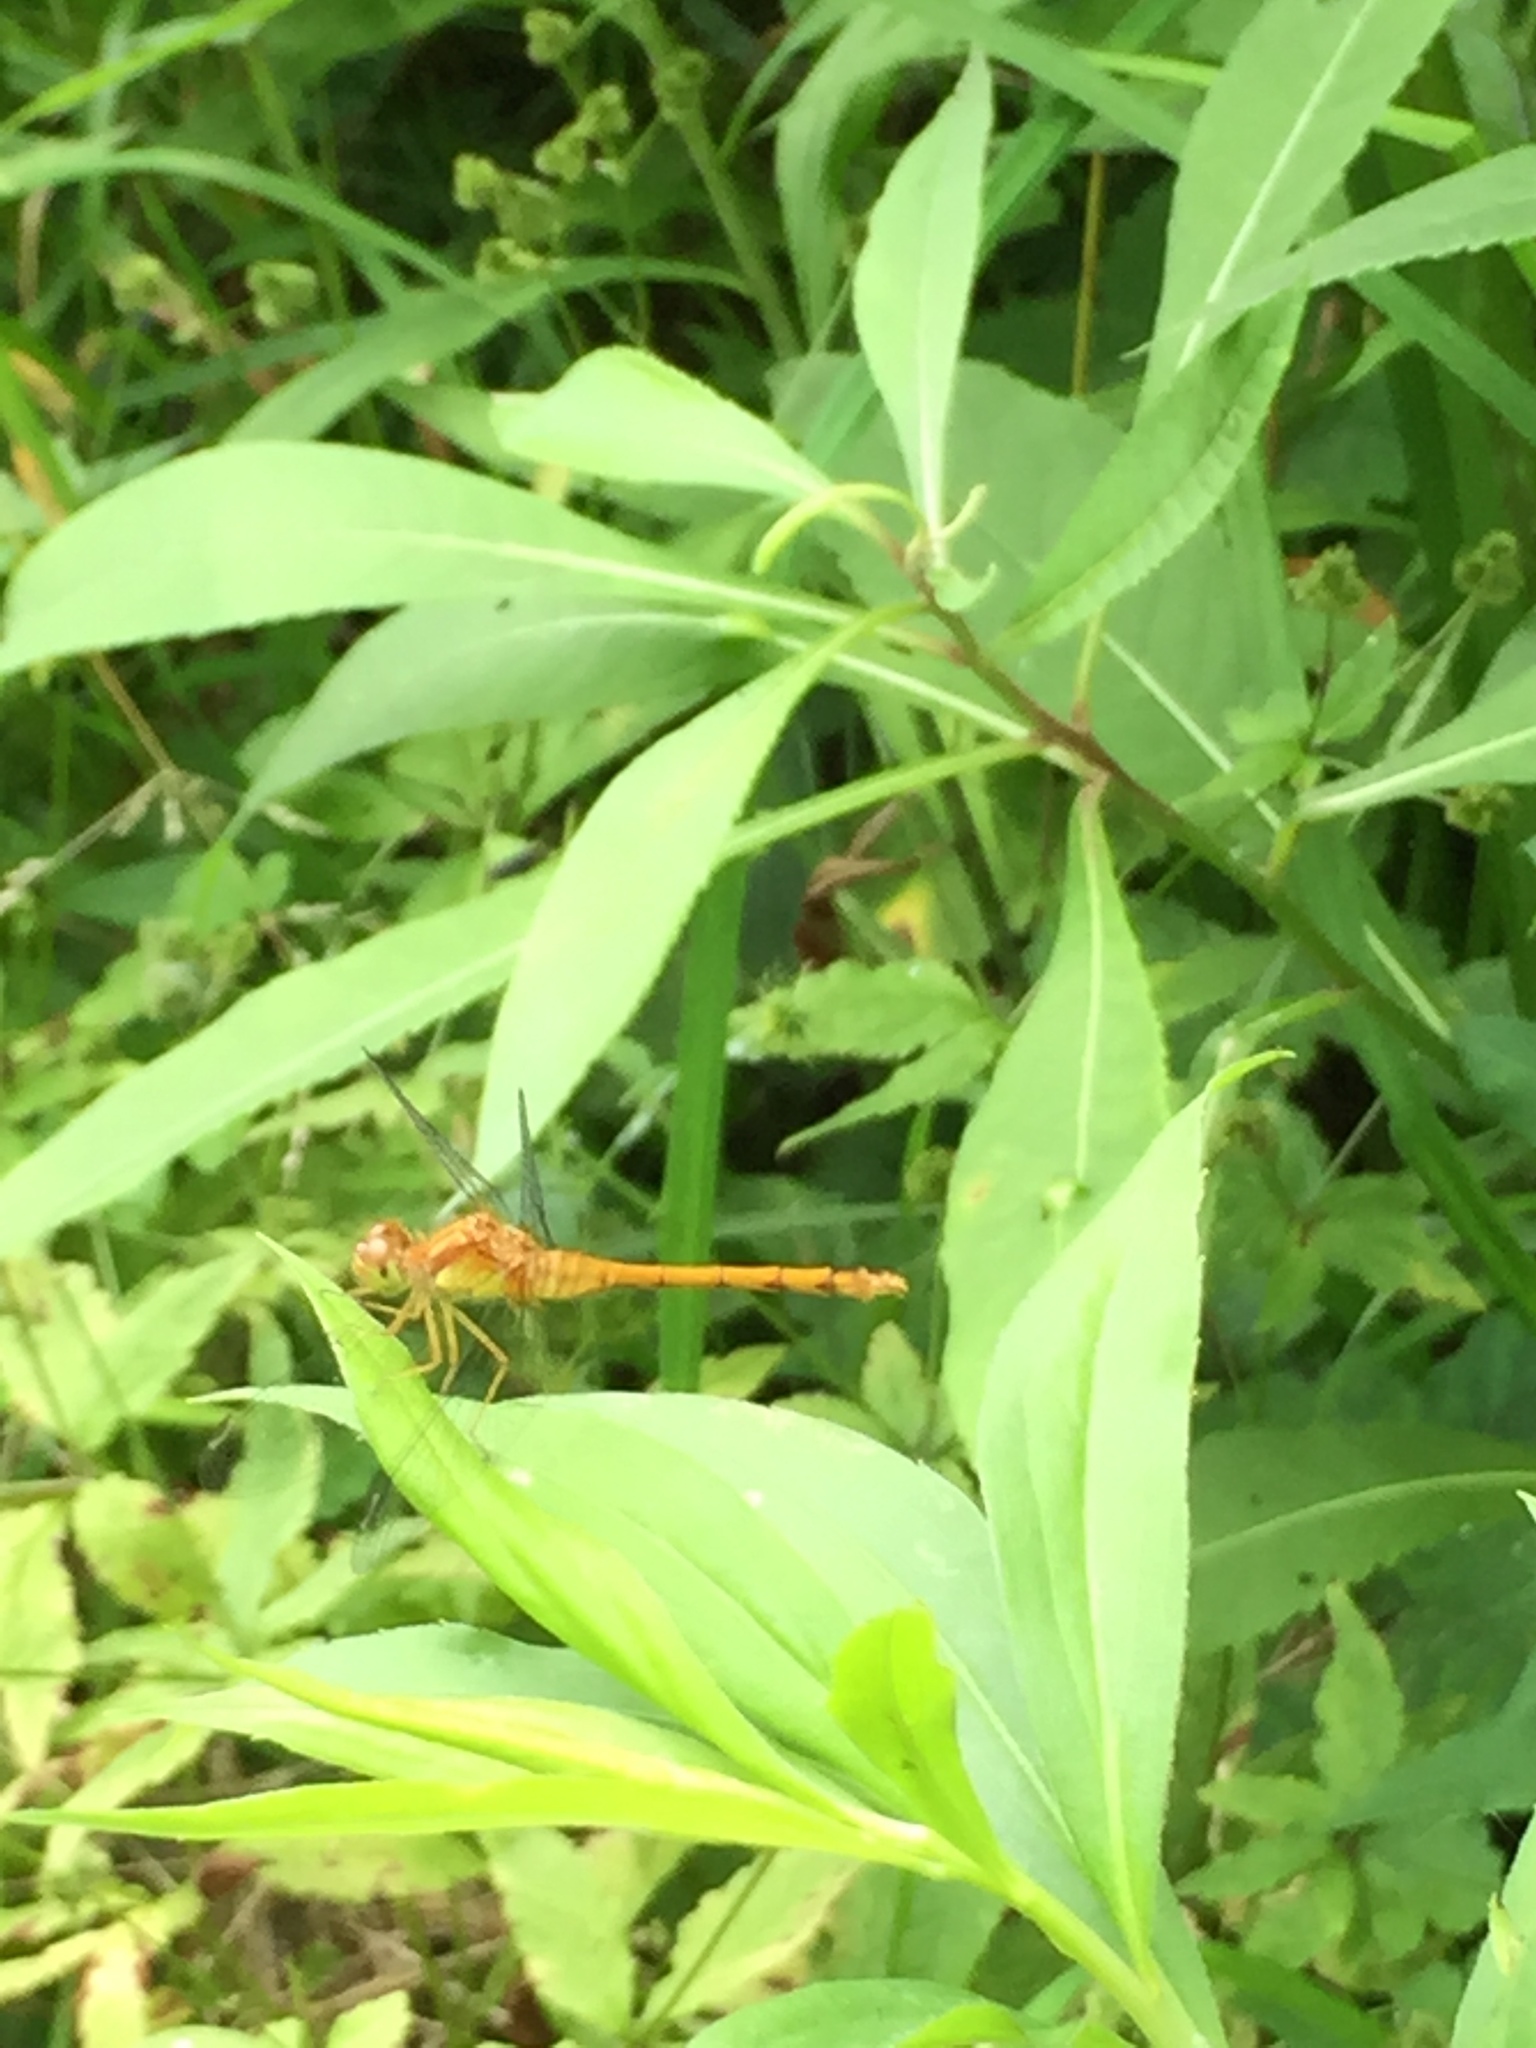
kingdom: Animalia
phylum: Arthropoda
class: Insecta
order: Odonata
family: Libellulidae
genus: Sympetrum
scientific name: Sympetrum vicinum
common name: Autumn meadowhawk
